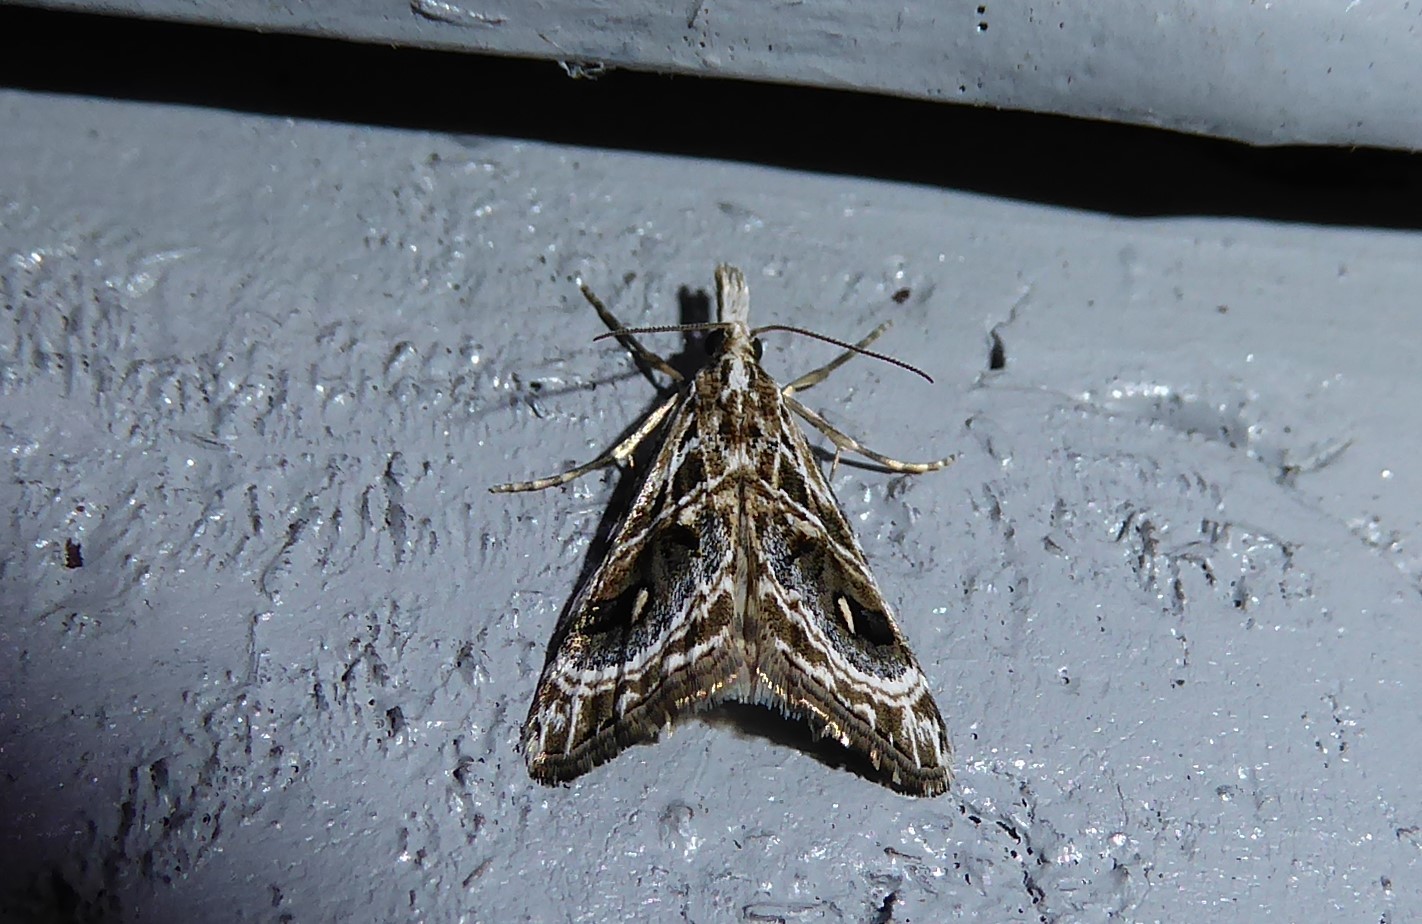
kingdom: Animalia
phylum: Arthropoda
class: Insecta
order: Lepidoptera
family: Crambidae
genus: Gadira
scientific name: Gadira acerella
